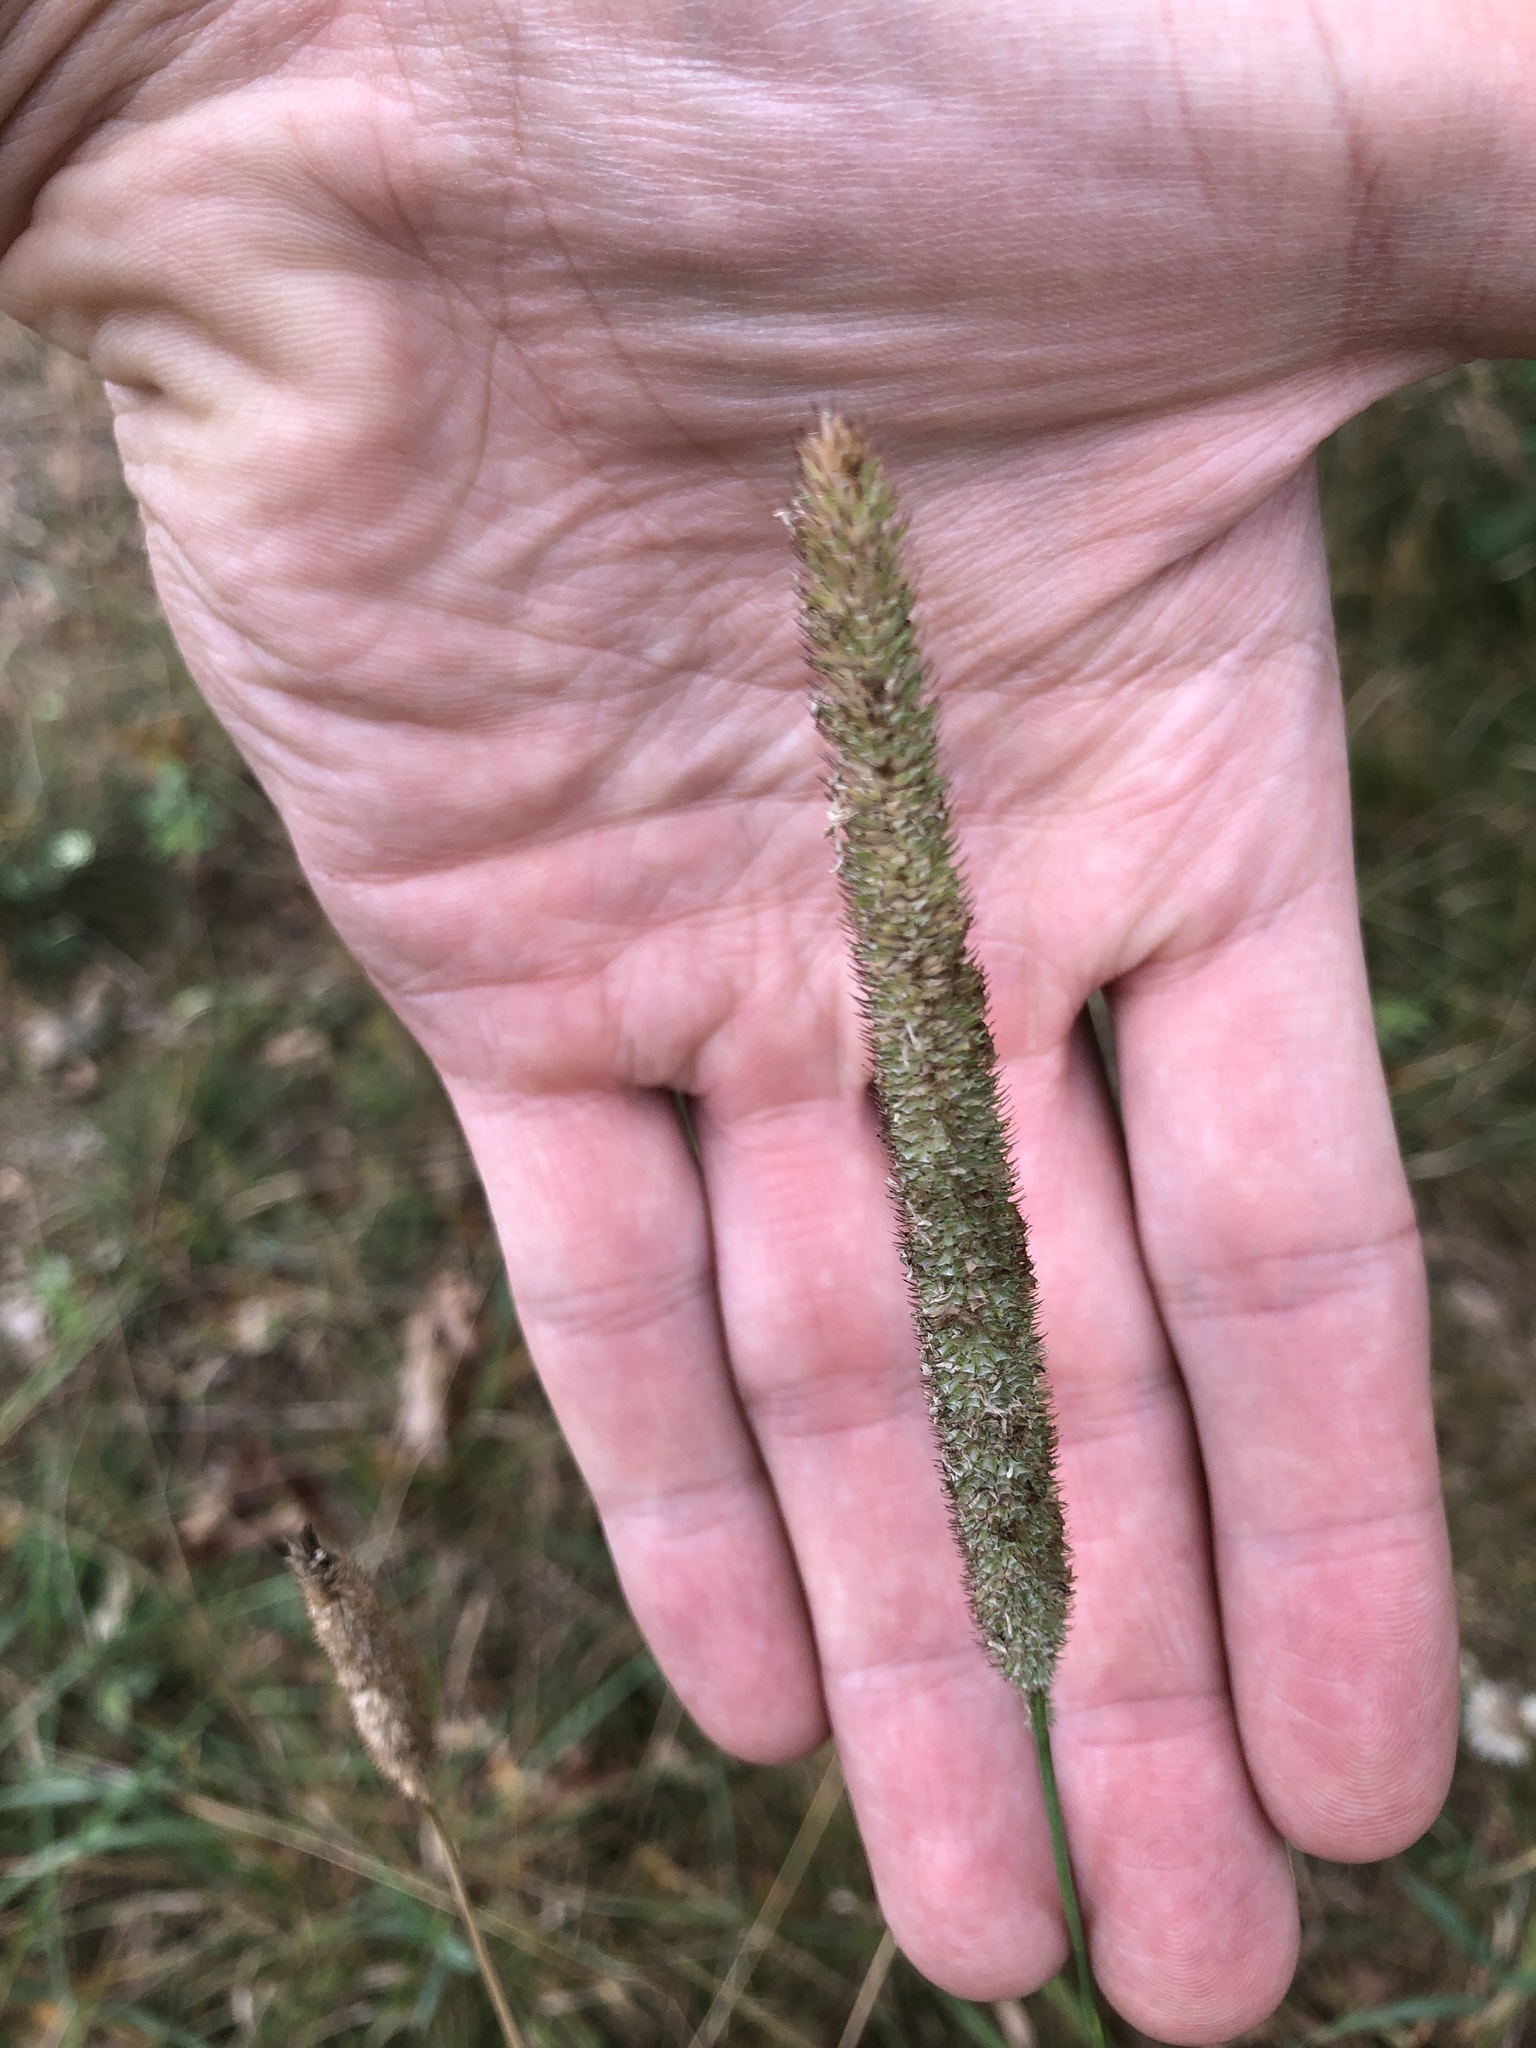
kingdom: Plantae
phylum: Tracheophyta
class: Liliopsida
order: Poales
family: Poaceae
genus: Phleum
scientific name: Phleum pratense
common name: Timothy grass
